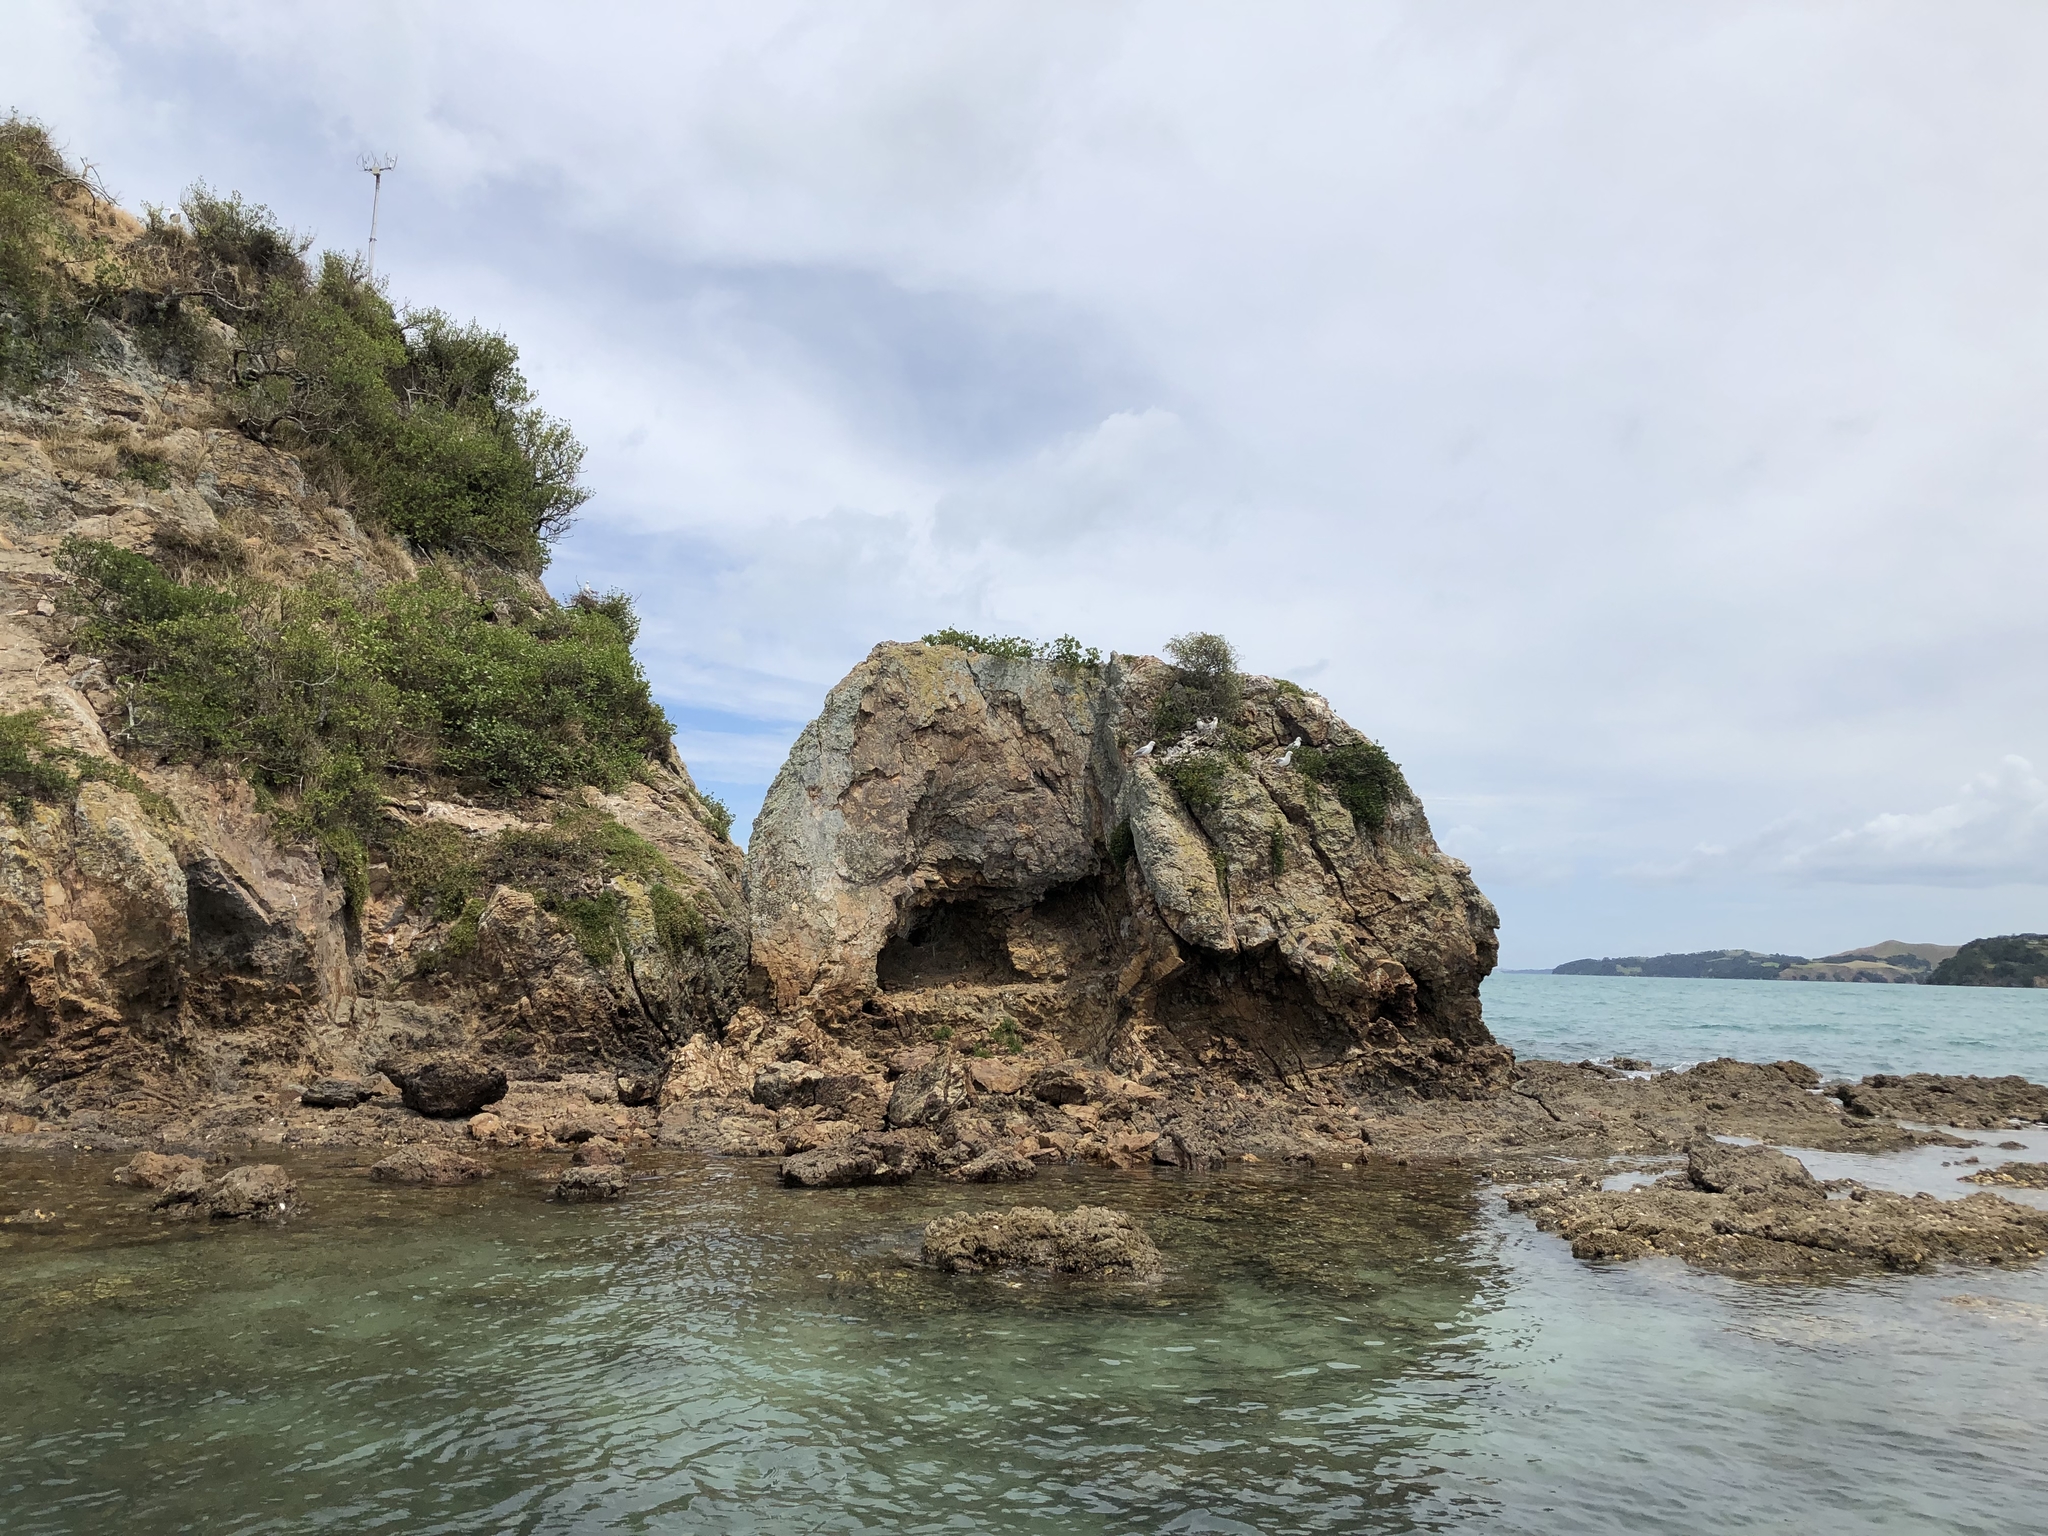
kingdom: Animalia
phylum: Chordata
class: Aves
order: Charadriiformes
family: Laridae
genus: Chroicocephalus
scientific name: Chroicocephalus novaehollandiae
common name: Silver gull
